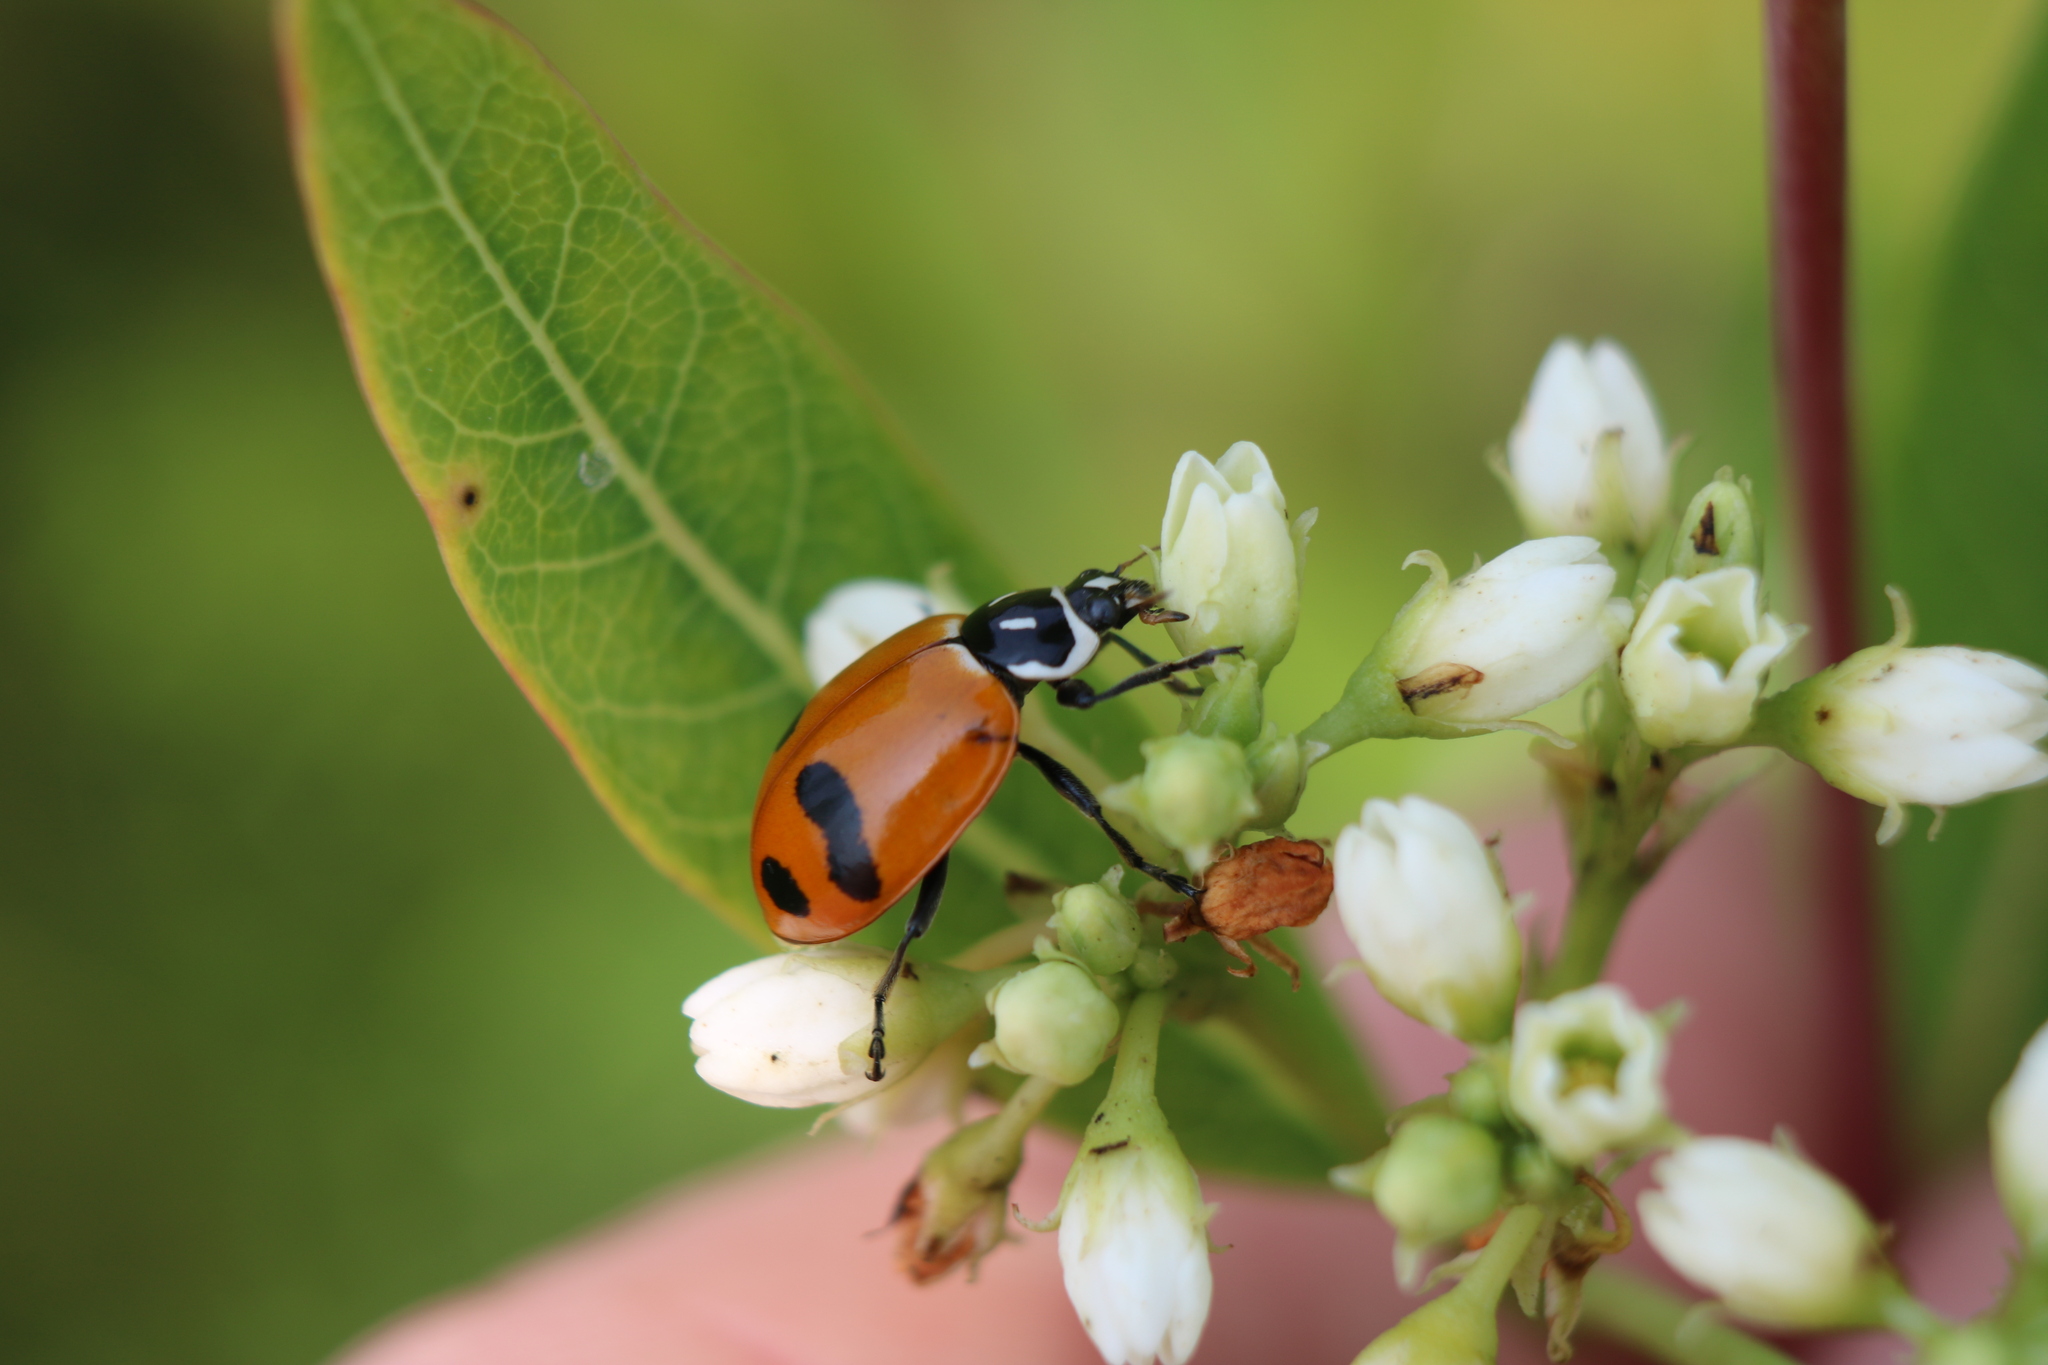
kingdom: Animalia
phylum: Arthropoda
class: Insecta
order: Coleoptera
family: Coccinellidae
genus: Hippodamia
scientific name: Hippodamia glacialis
